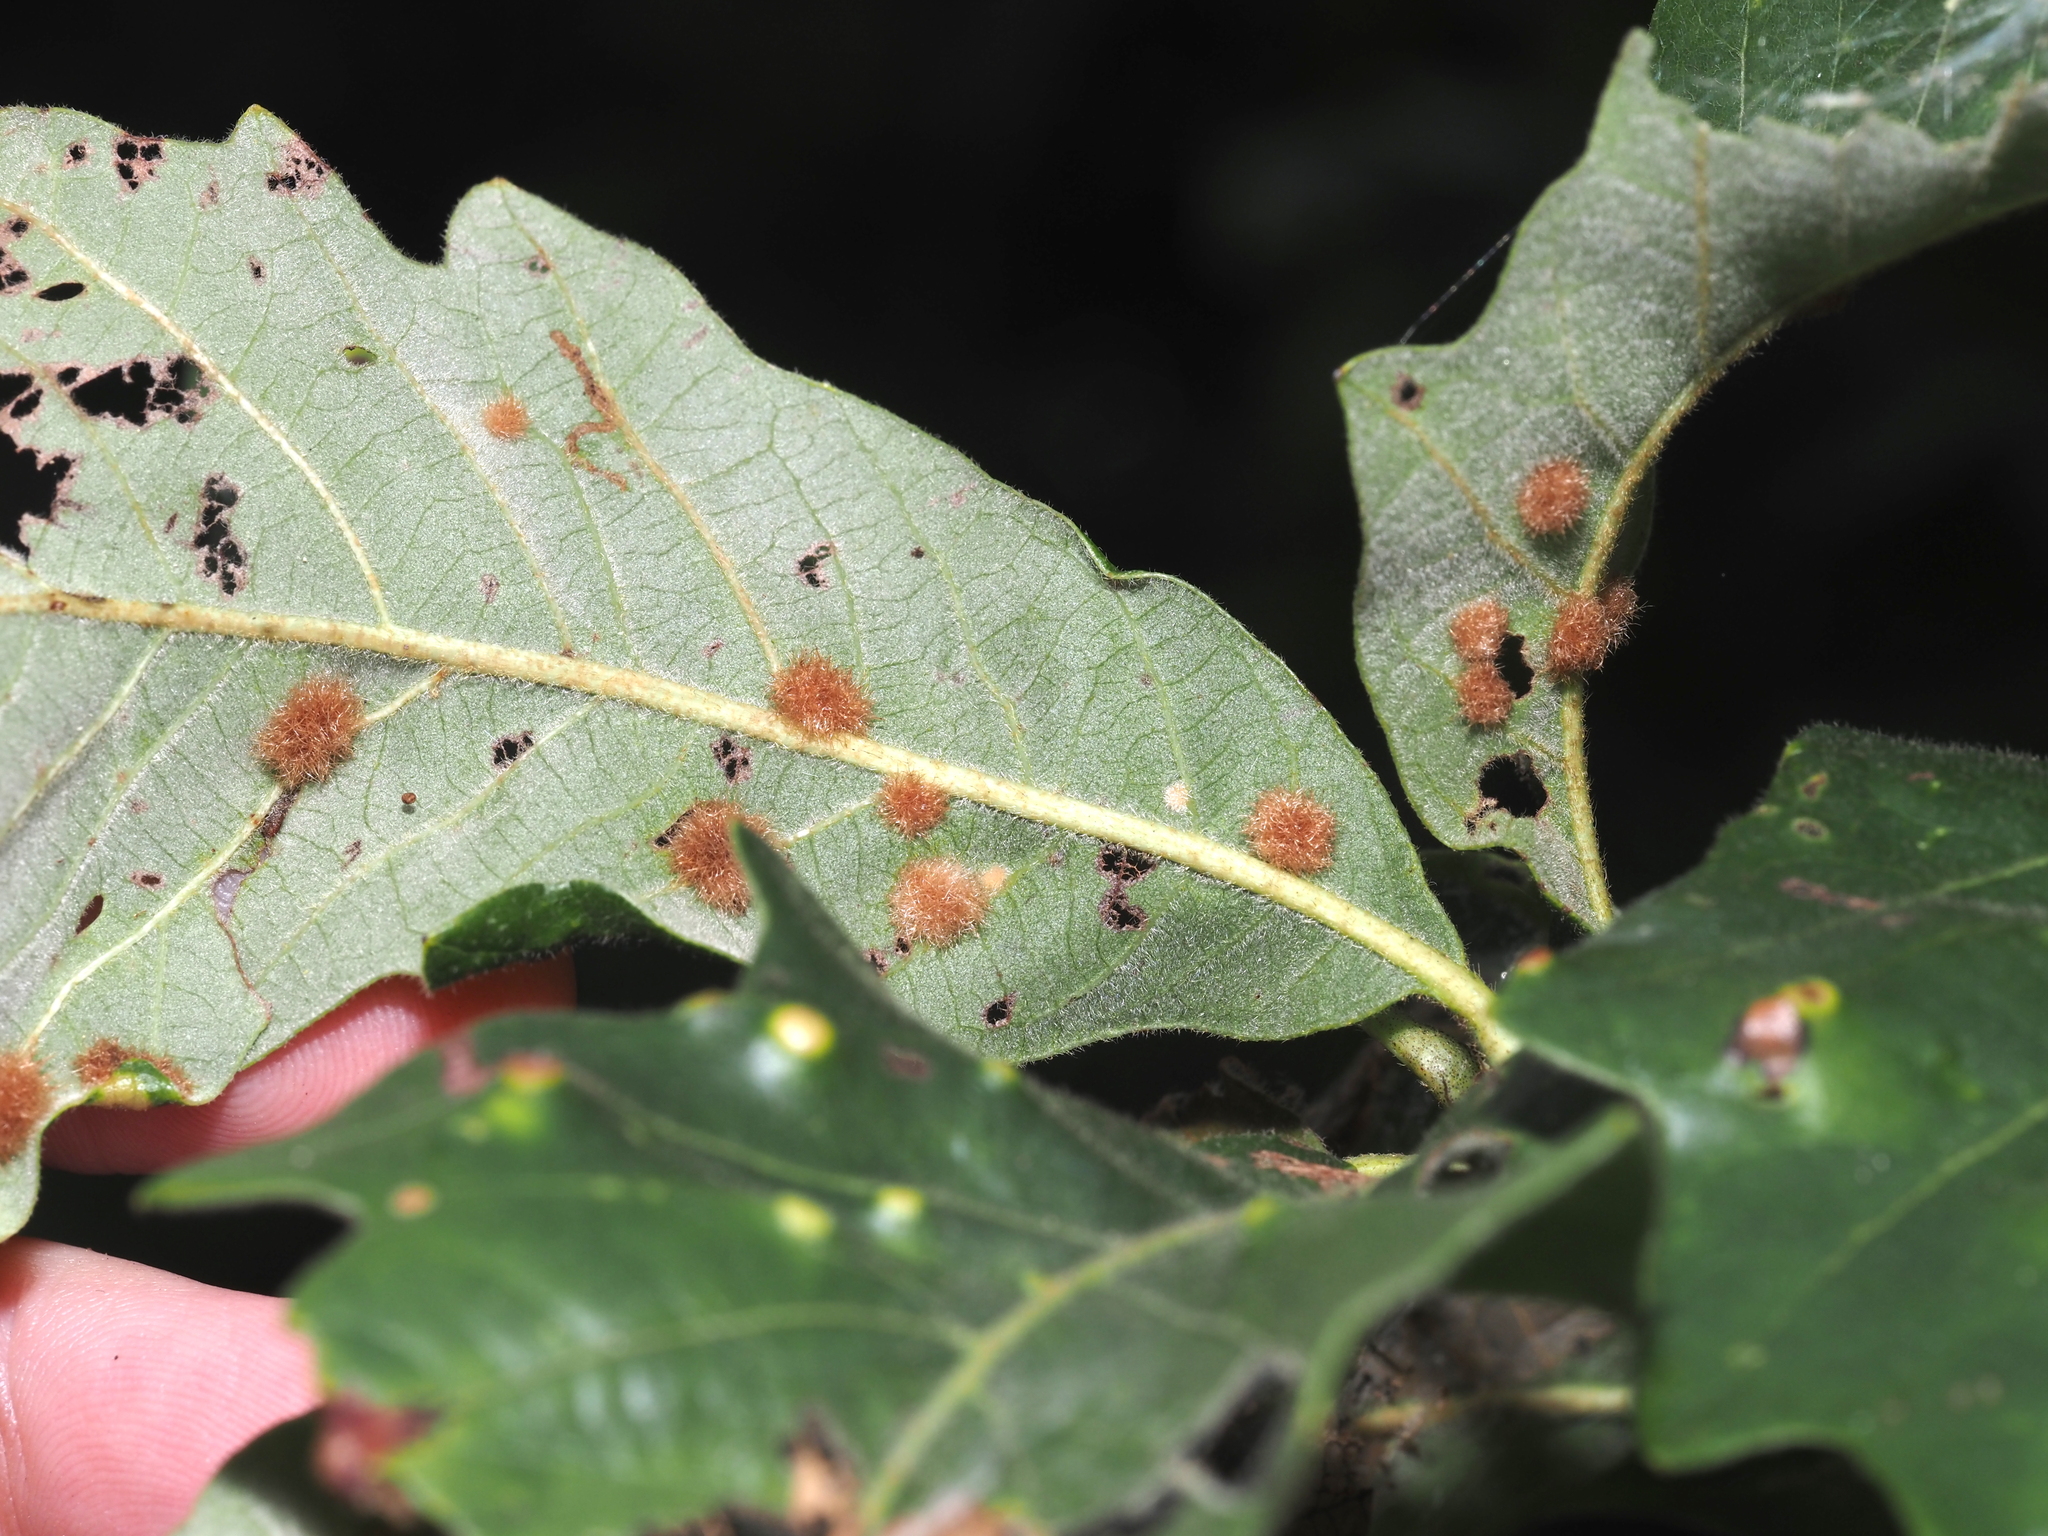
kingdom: Animalia
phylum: Arthropoda
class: Insecta
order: Hymenoptera
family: Cynipidae
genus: Neuroterus
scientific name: Neuroterus floccosus
